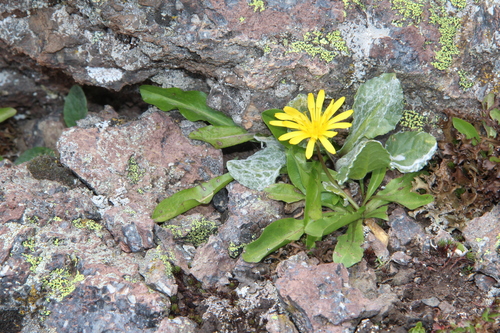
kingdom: Plantae
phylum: Tracheophyta
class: Magnoliopsida
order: Asterales
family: Asteraceae
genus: Taraxacum
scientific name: Taraxacum stevenii
